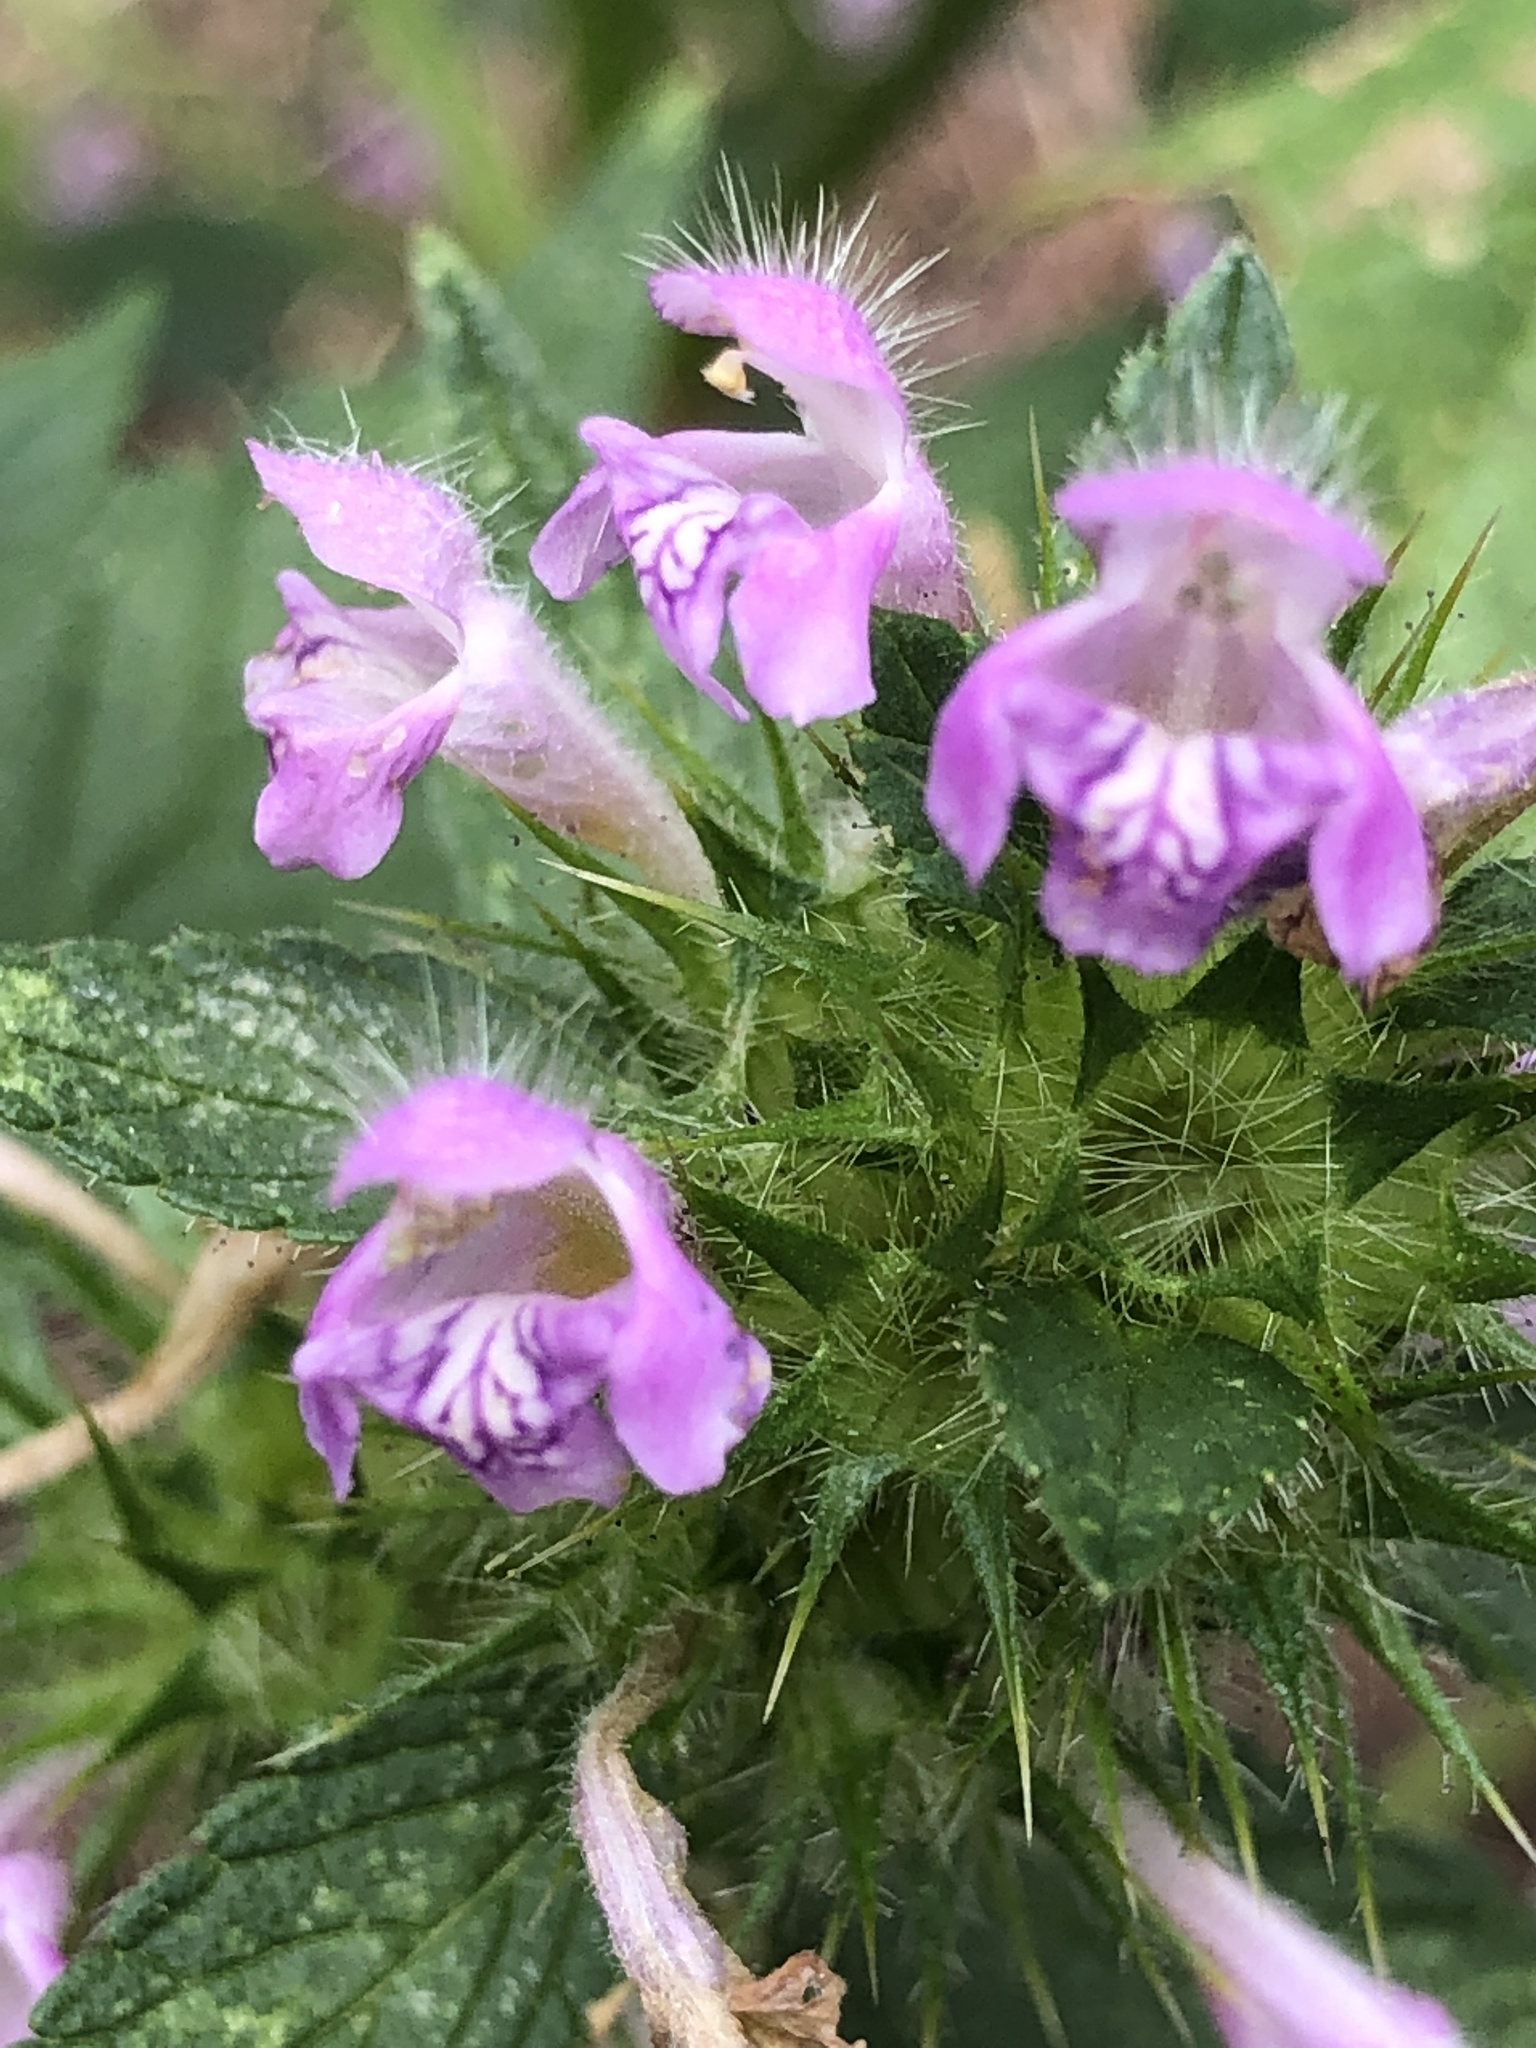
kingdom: Plantae
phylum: Tracheophyta
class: Magnoliopsida
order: Lamiales
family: Lamiaceae
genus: Galeopsis
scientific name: Galeopsis tetrahit
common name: Common hemp-nettle
